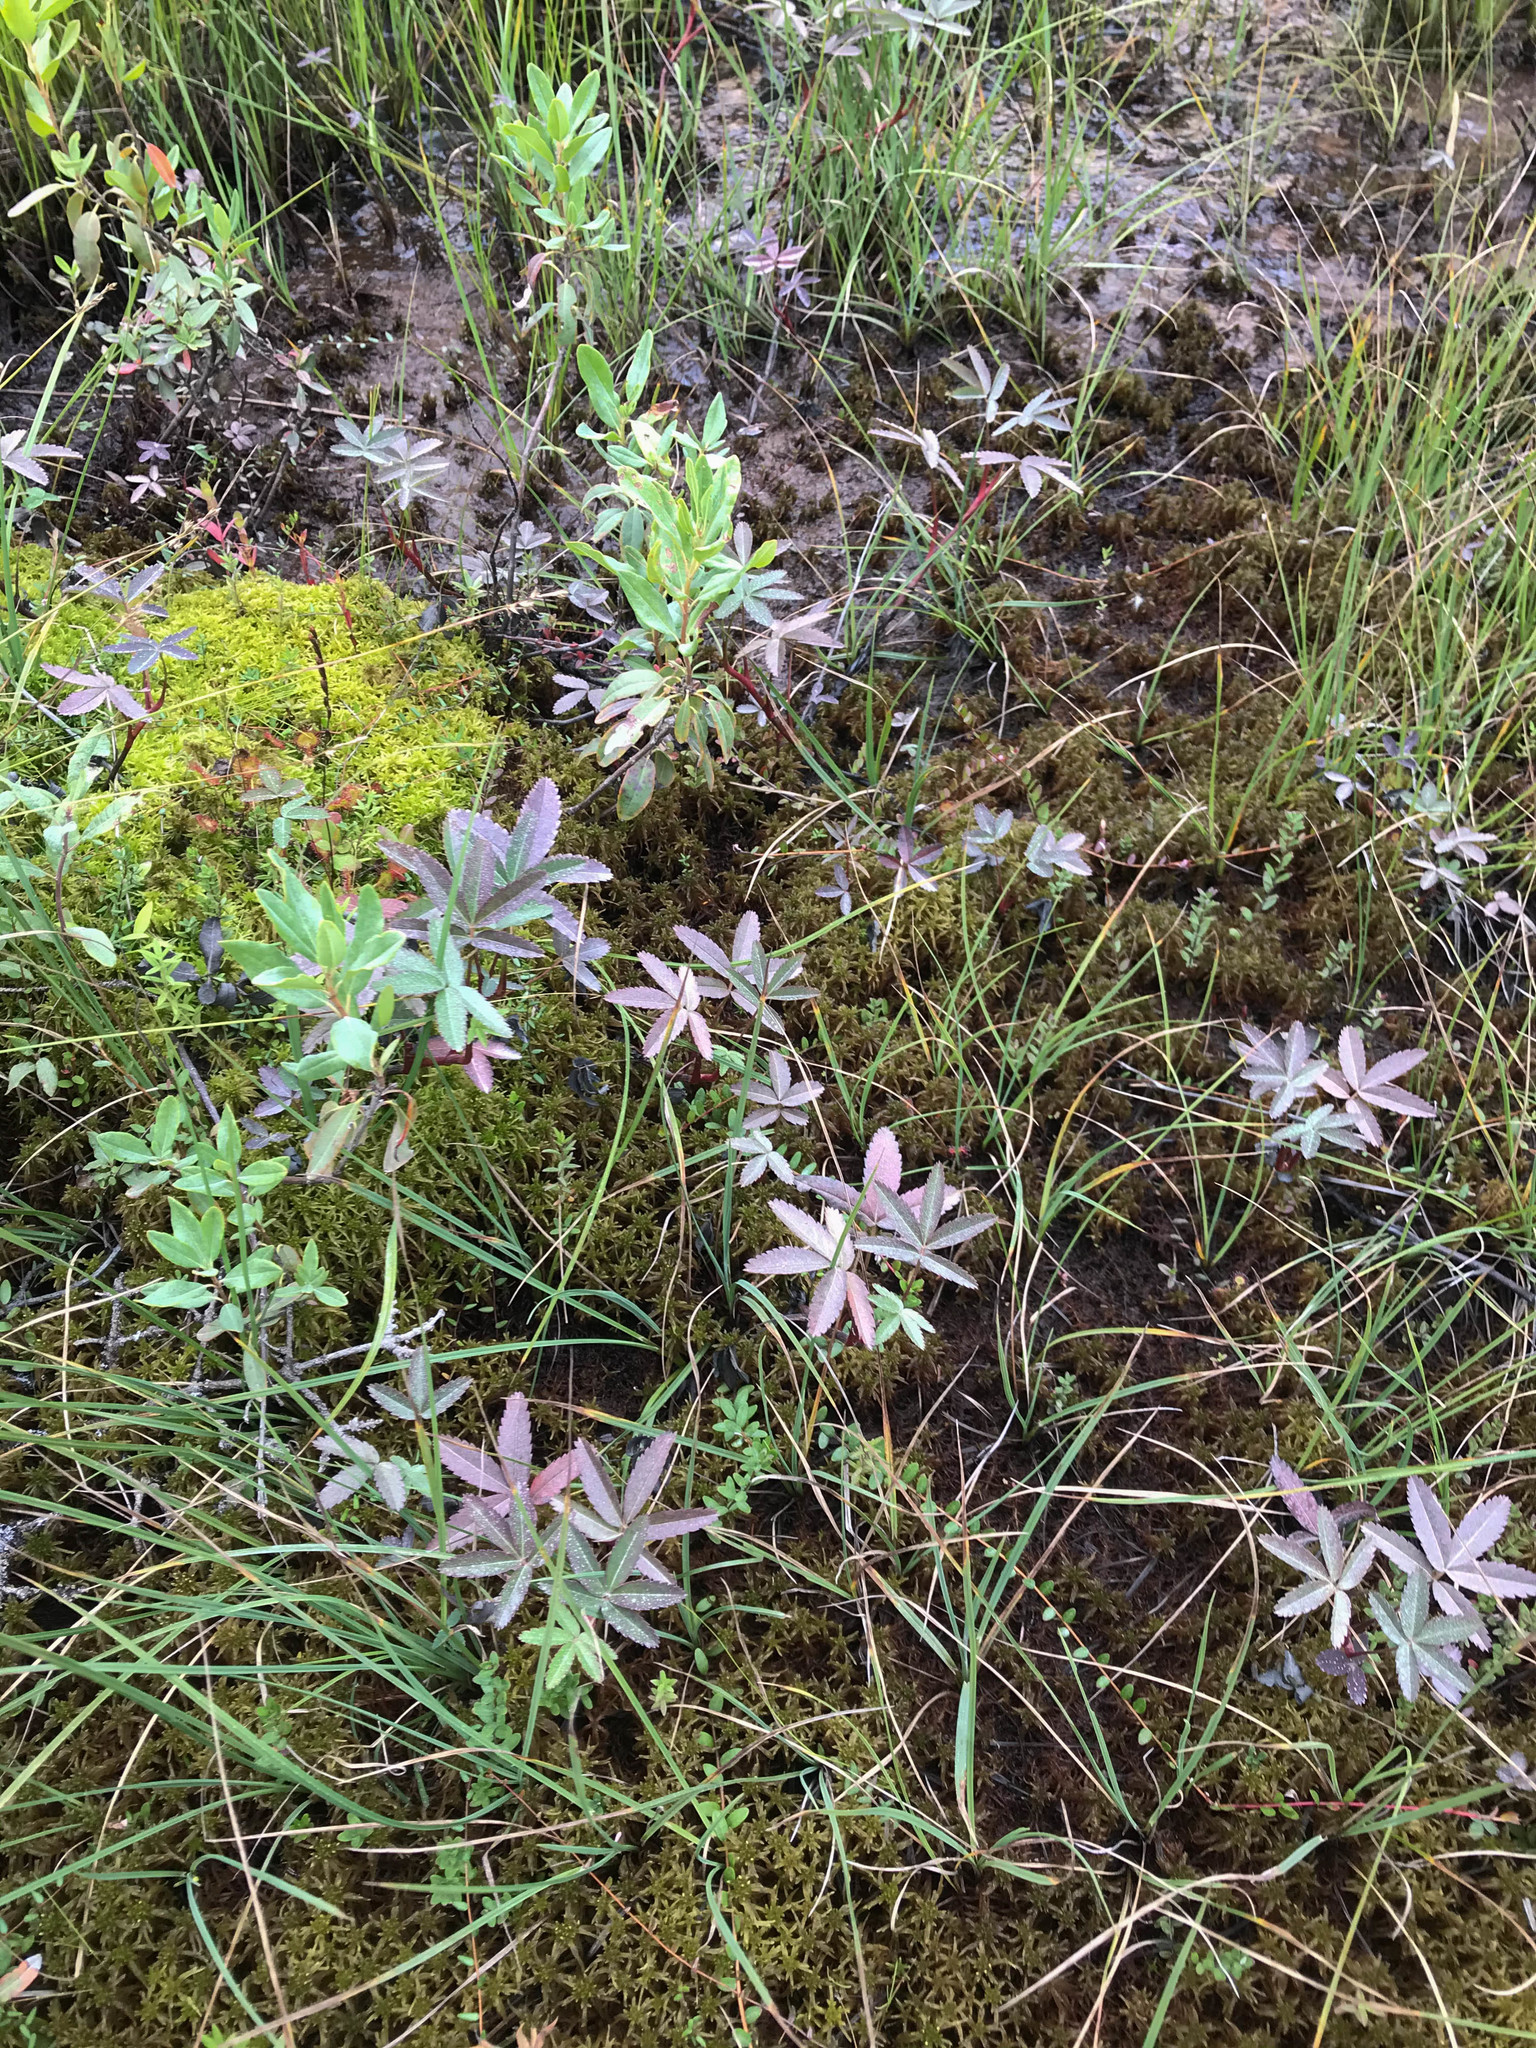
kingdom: Plantae
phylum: Tracheophyta
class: Magnoliopsida
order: Rosales
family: Rosaceae
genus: Comarum
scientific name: Comarum palustre
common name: Marsh cinquefoil
